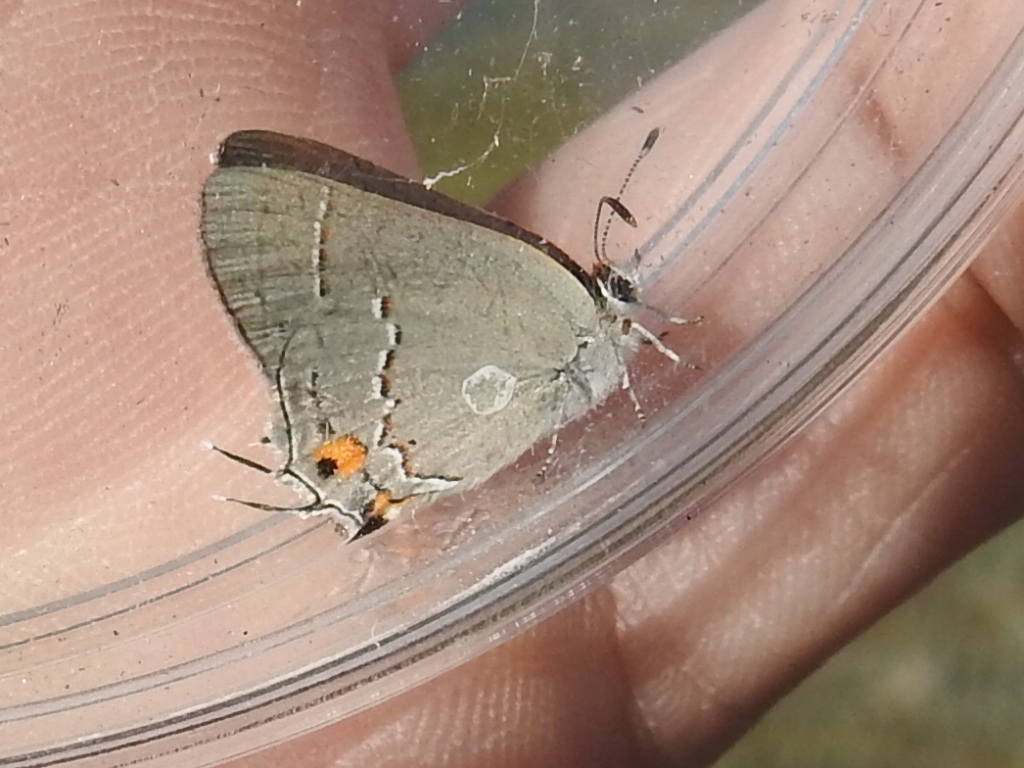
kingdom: Animalia
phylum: Arthropoda
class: Insecta
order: Lepidoptera
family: Lycaenidae
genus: Strymon
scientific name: Strymon melinus
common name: Gray hairstreak
